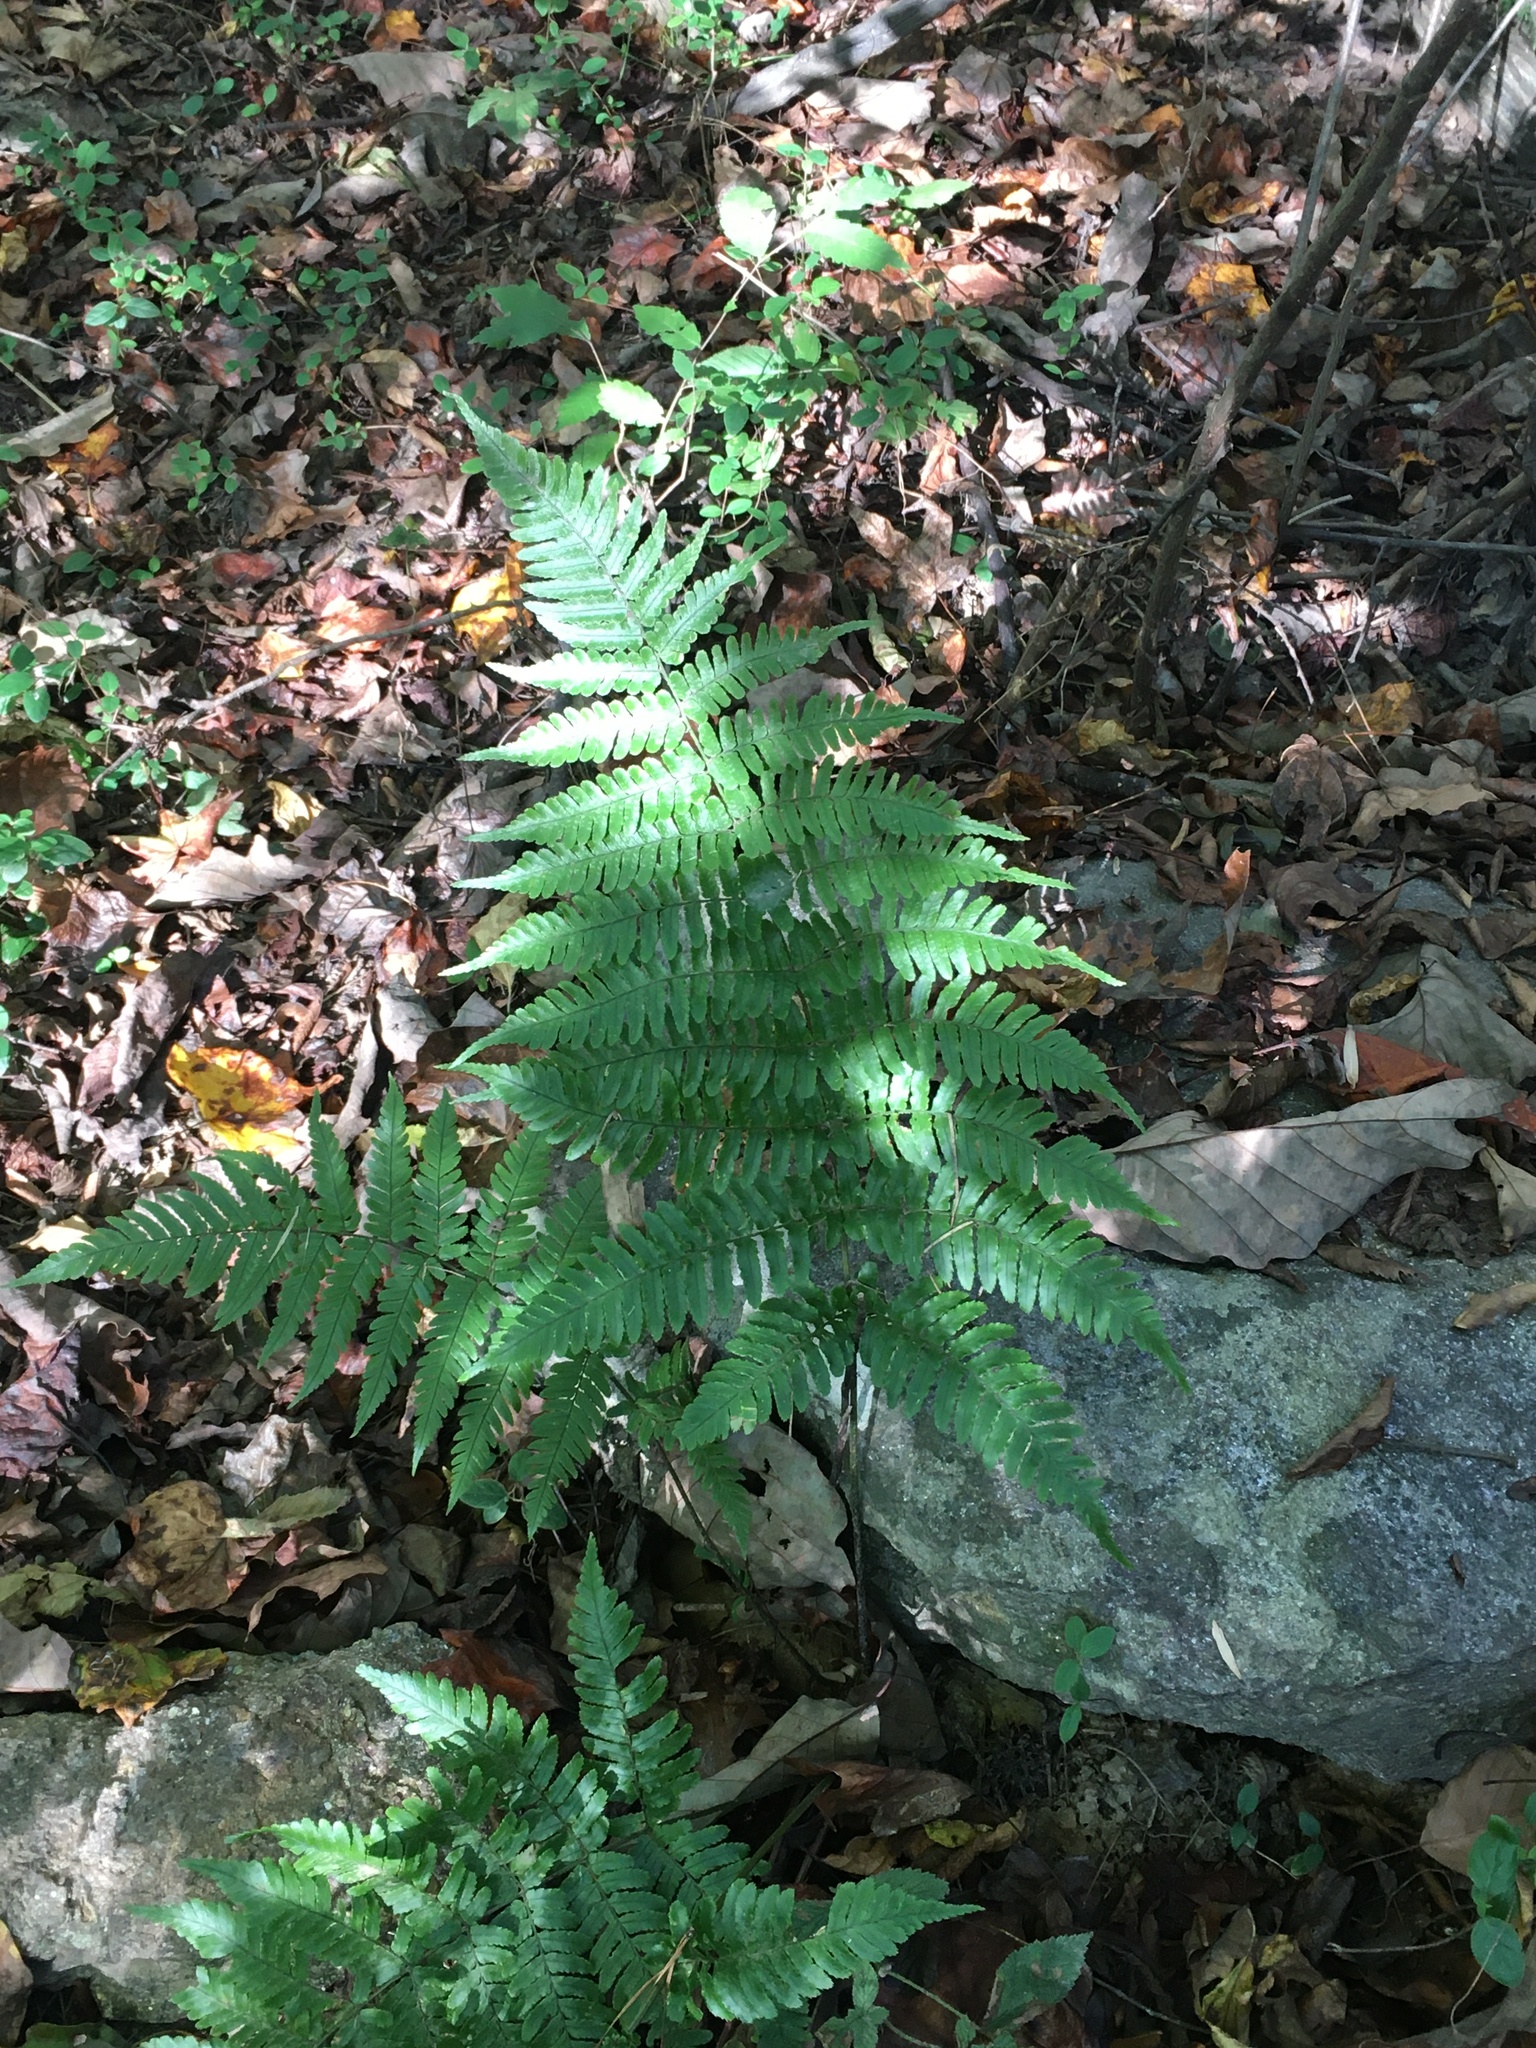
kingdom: Plantae
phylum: Tracheophyta
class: Polypodiopsida
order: Polypodiales
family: Dryopteridaceae
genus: Dryopteris
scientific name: Dryopteris erythrosora
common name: Autumn fern
